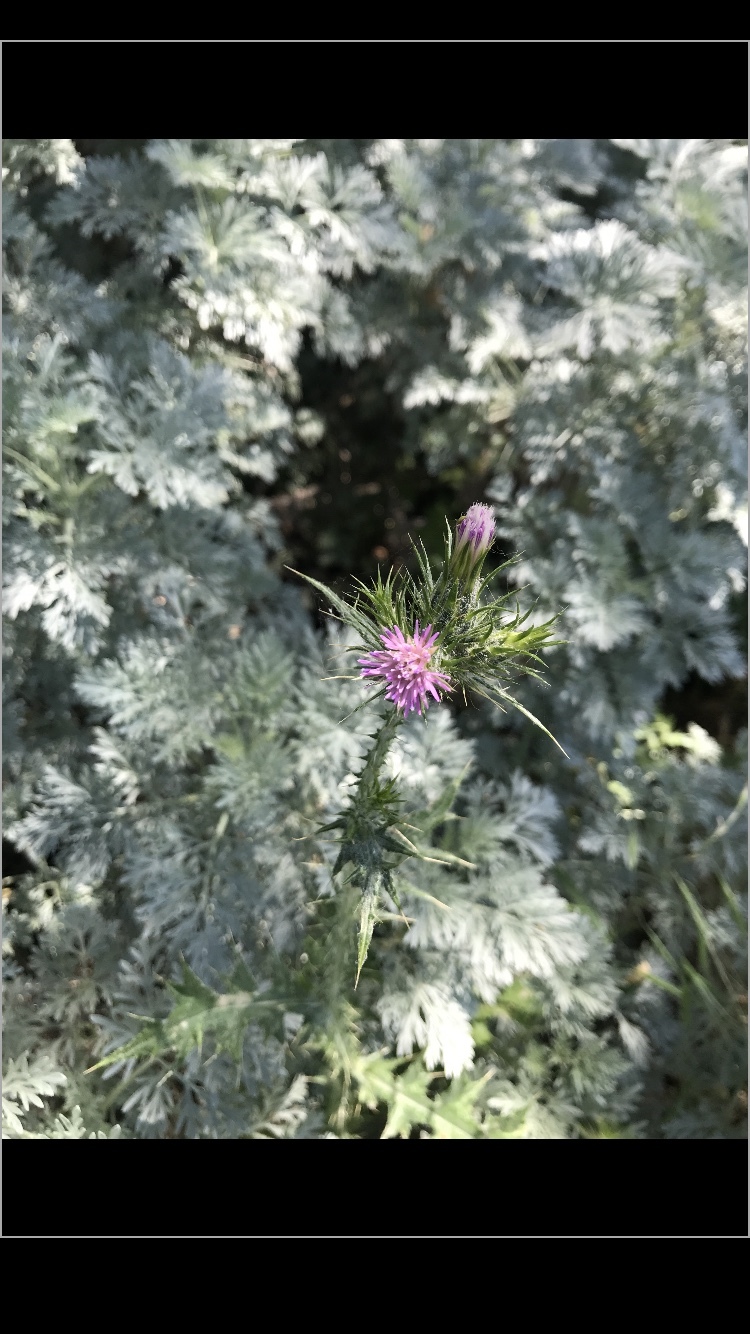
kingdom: Plantae
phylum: Tracheophyta
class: Magnoliopsida
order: Asterales
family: Asteraceae
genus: Carduus
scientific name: Carduus pycnocephalus
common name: Plymouth thistle
